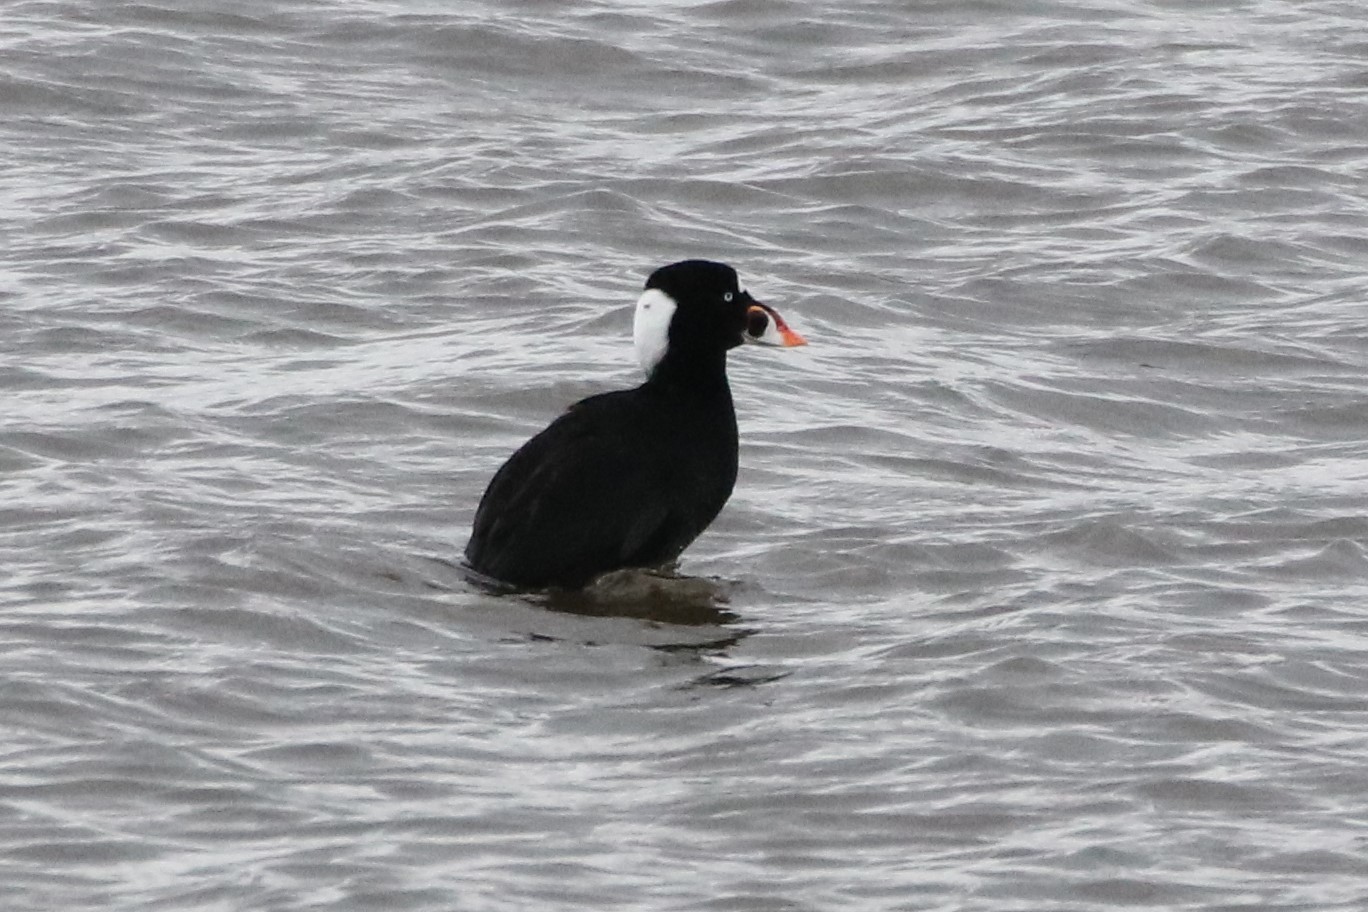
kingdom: Animalia
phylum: Chordata
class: Aves
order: Anseriformes
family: Anatidae
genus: Melanitta
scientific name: Melanitta perspicillata
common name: Surf scoter
